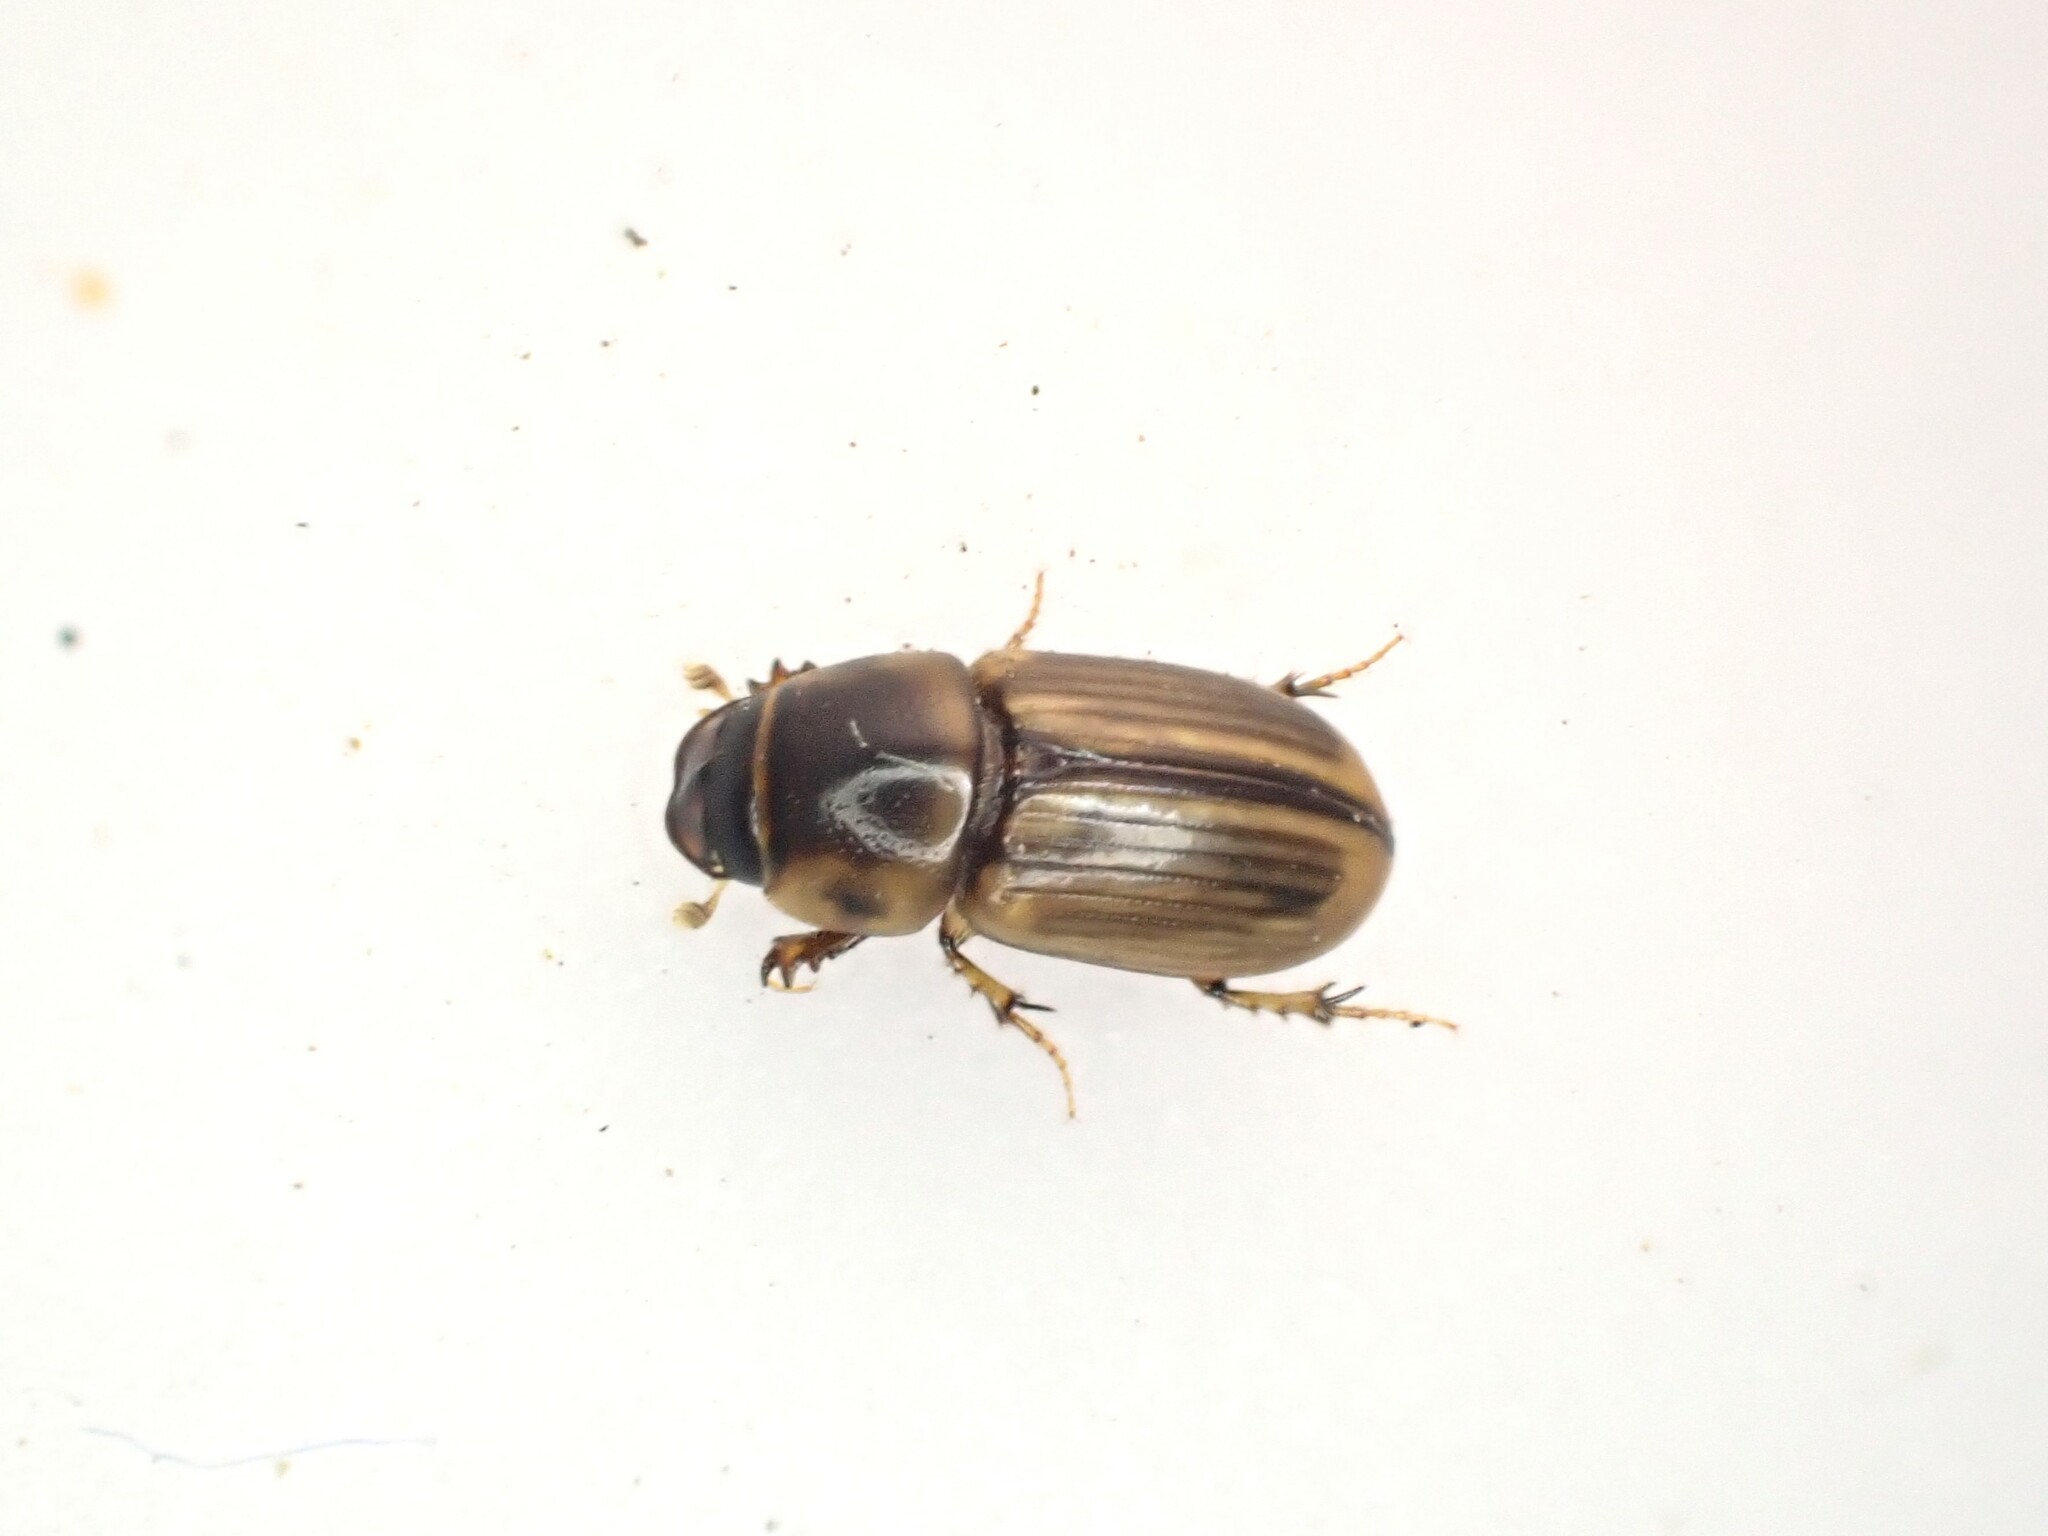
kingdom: Animalia
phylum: Arthropoda
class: Insecta
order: Coleoptera
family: Scarabaeidae
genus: Labarrus
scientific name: Labarrus lividus
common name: Scarab beetle
